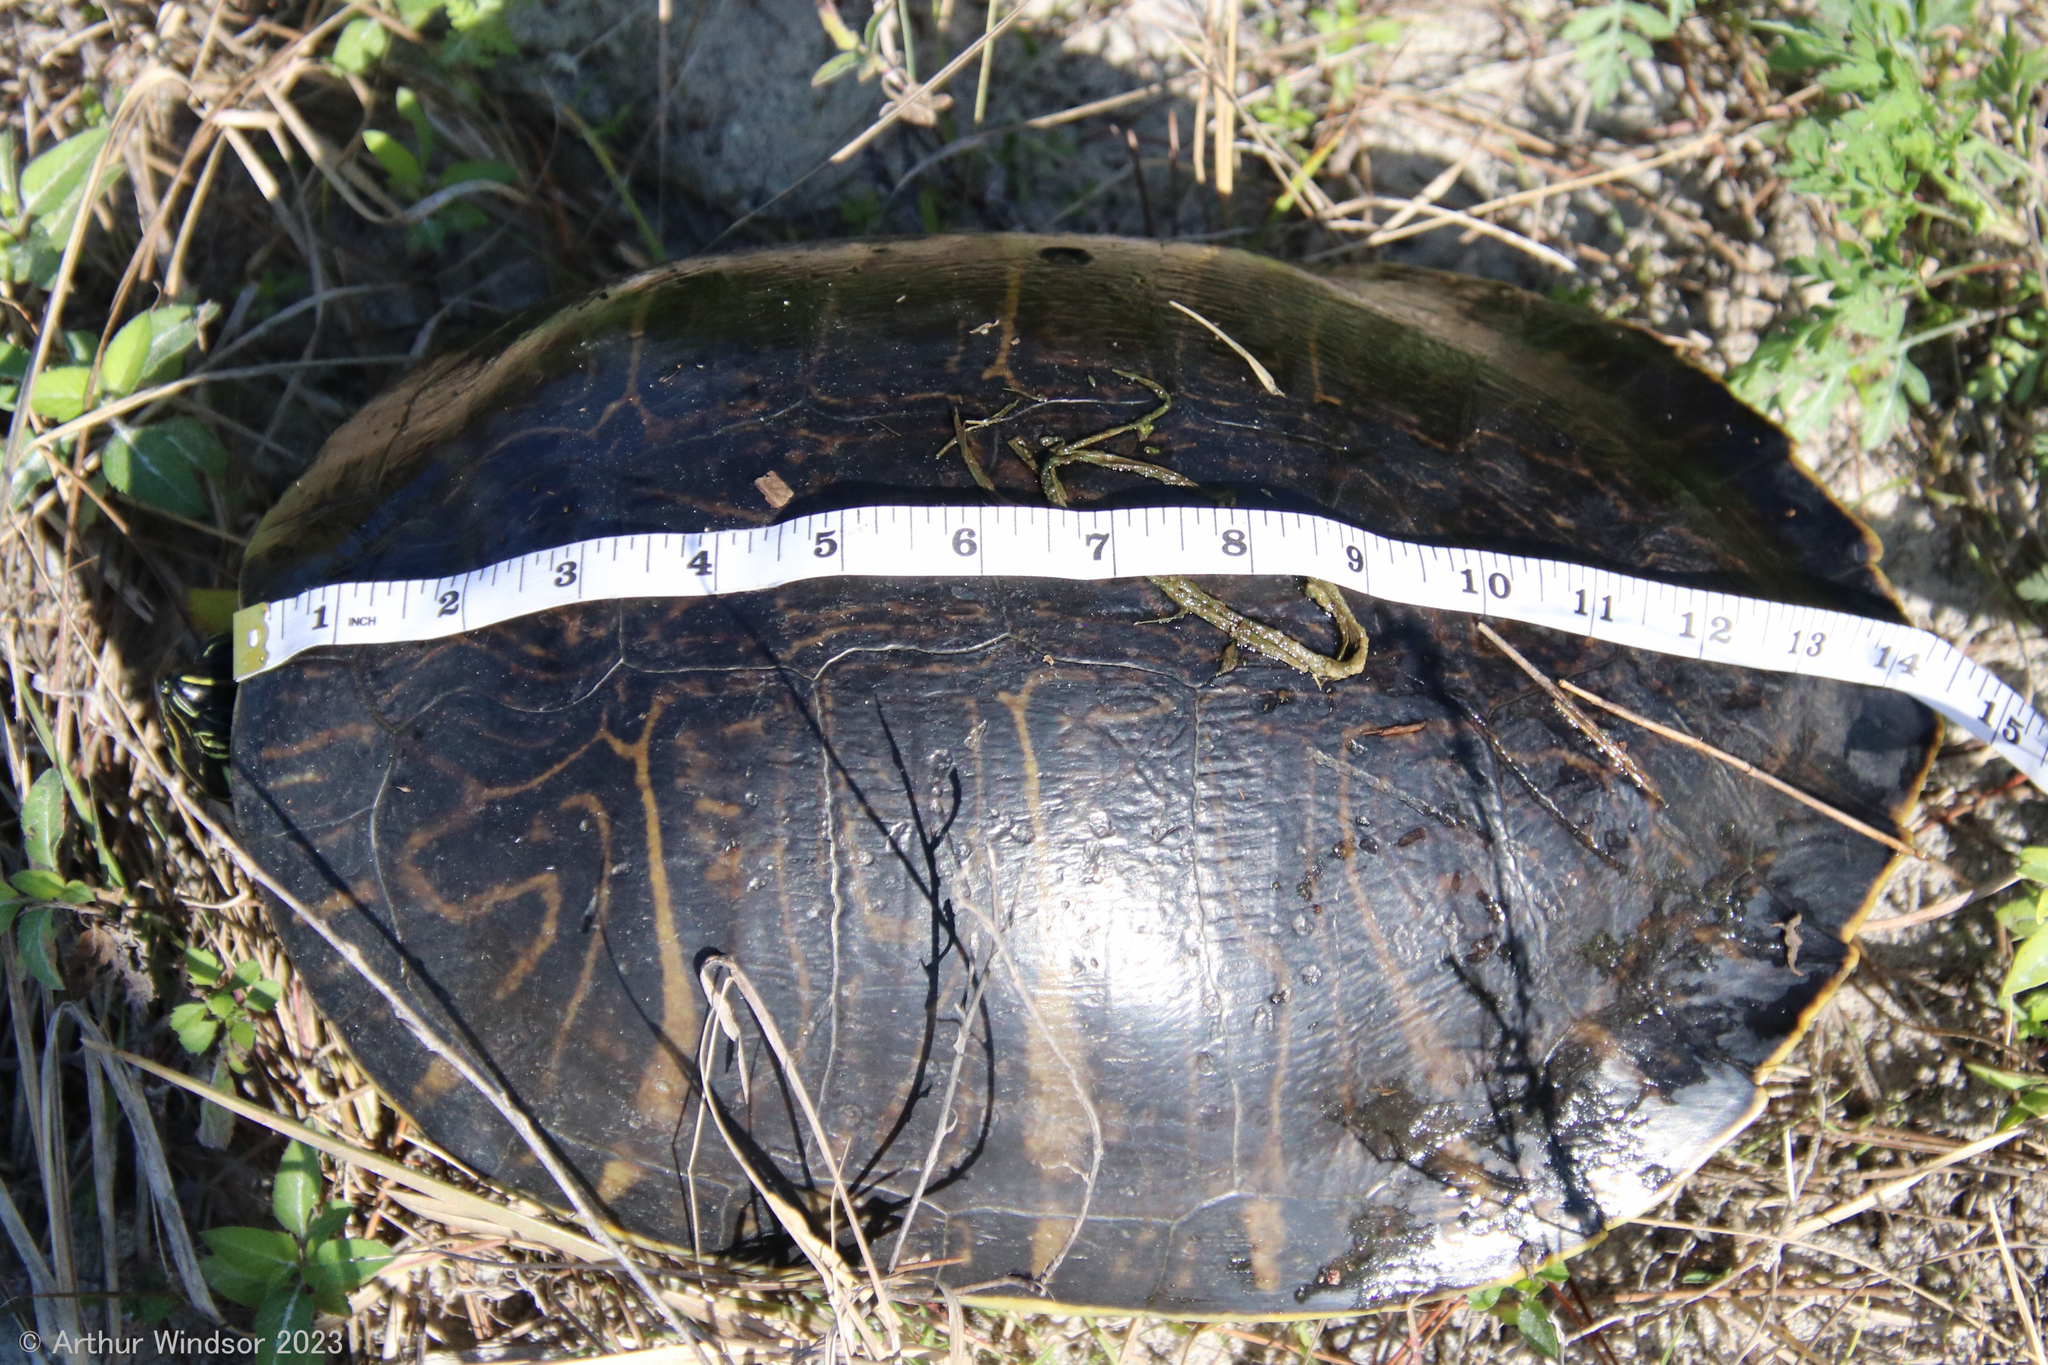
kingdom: Animalia
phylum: Chordata
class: Testudines
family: Emydidae
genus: Pseudemys
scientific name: Pseudemys peninsularis
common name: Peninsula cooter
